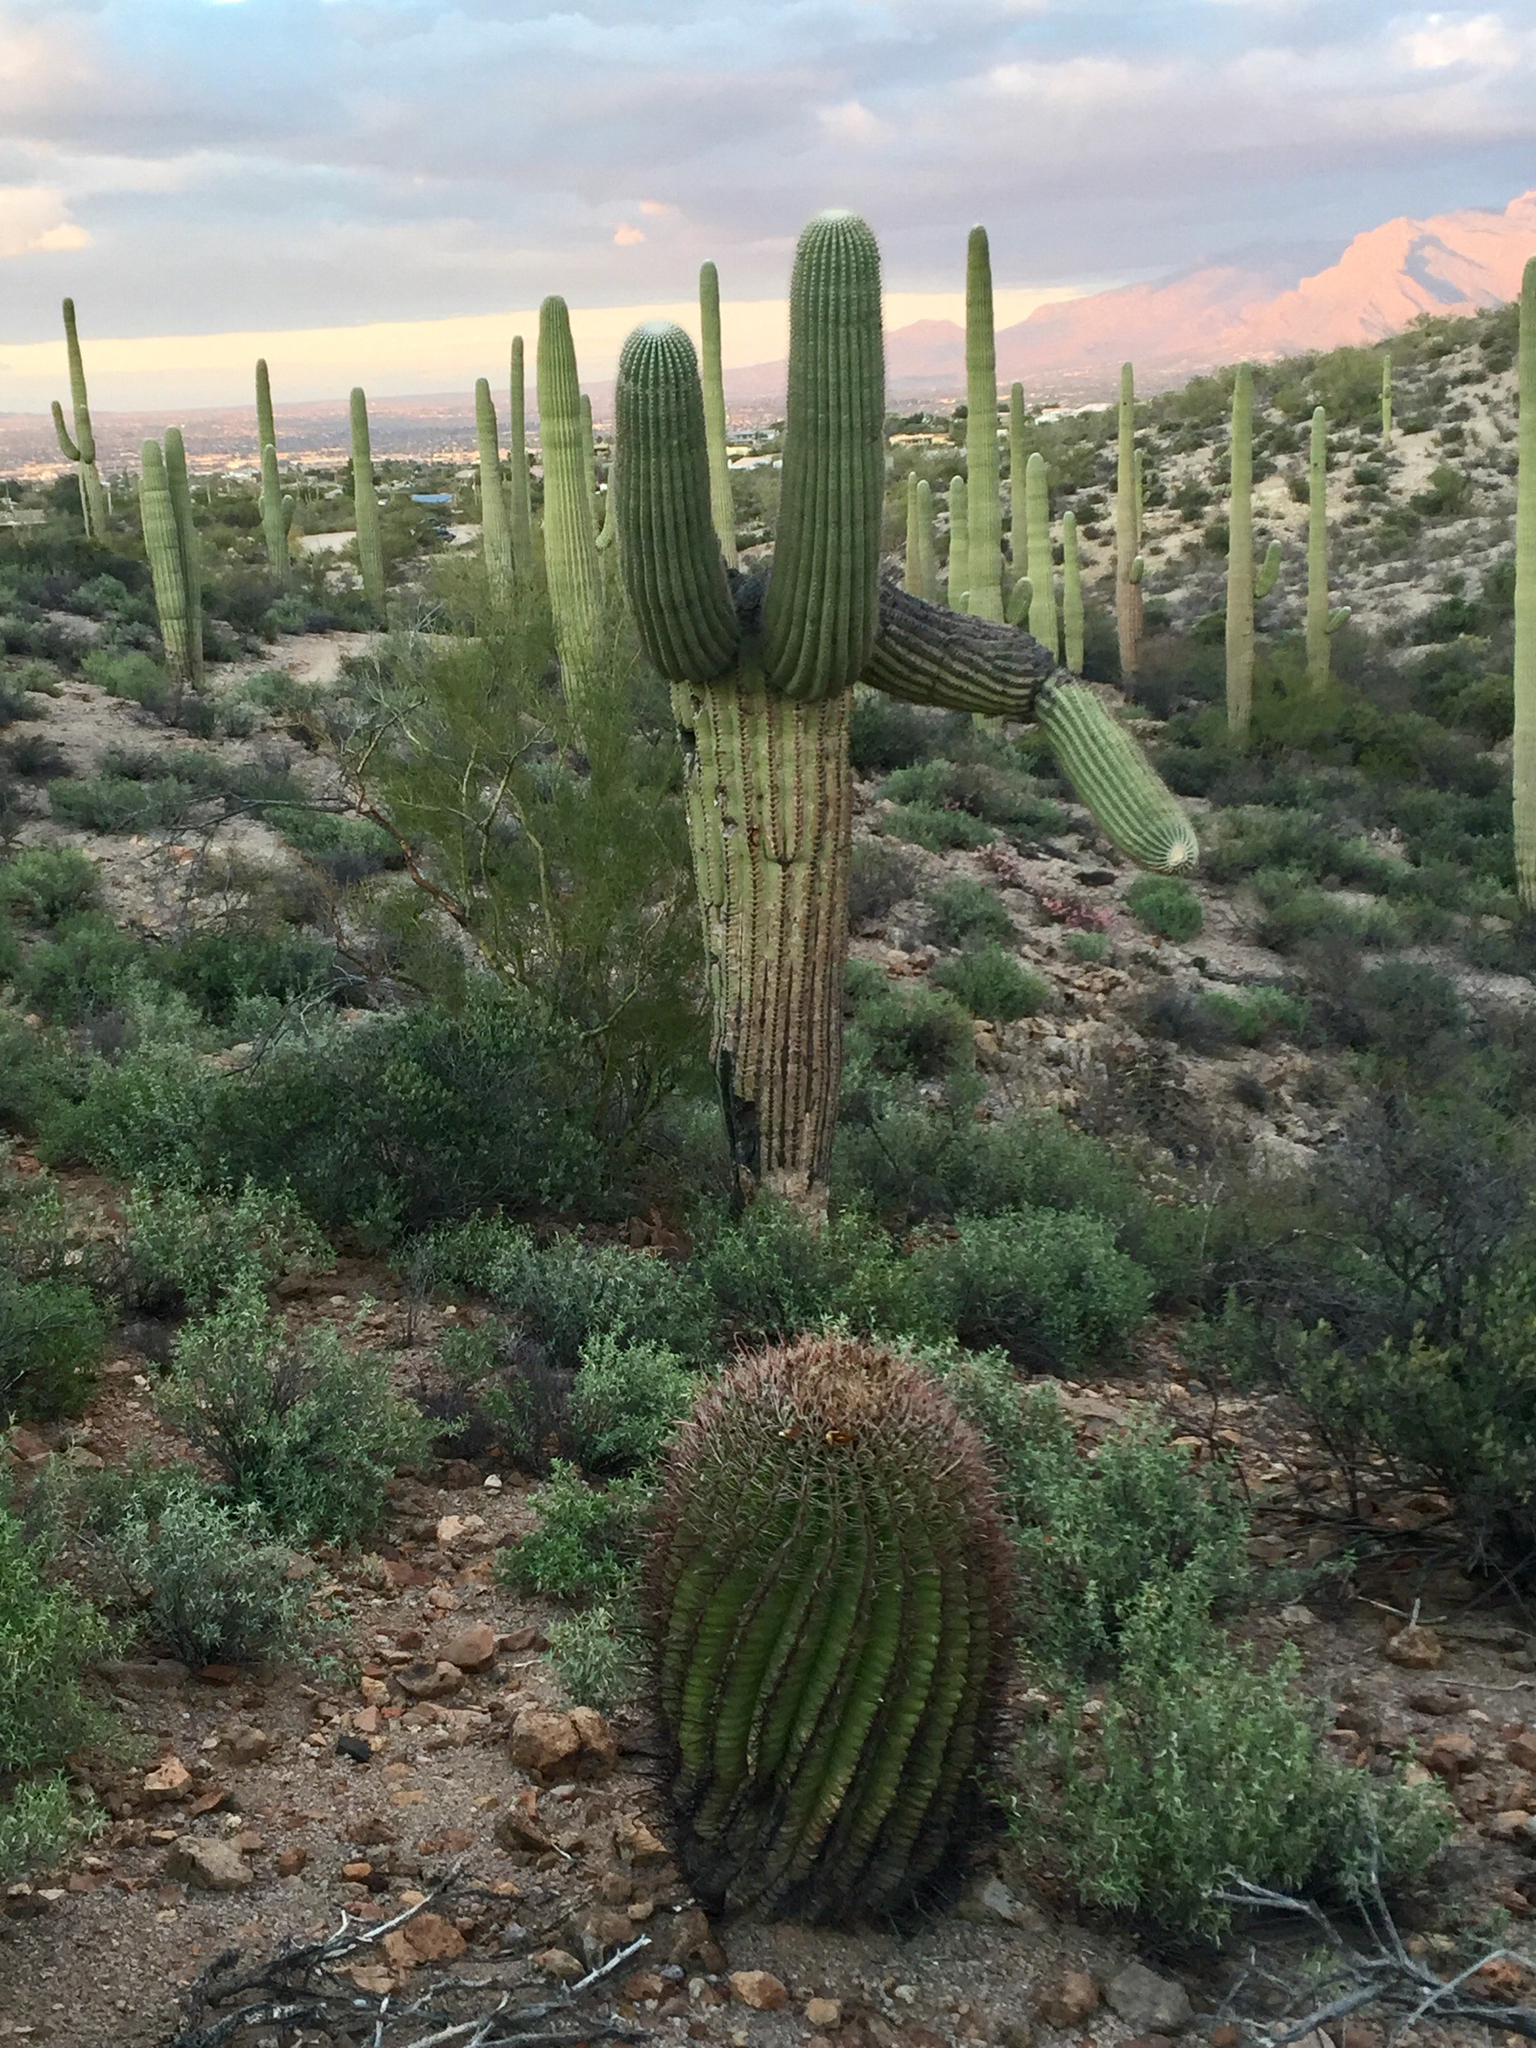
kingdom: Plantae
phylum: Tracheophyta
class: Magnoliopsida
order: Caryophyllales
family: Cactaceae
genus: Carnegiea
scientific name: Carnegiea gigantea
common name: Saguaro
